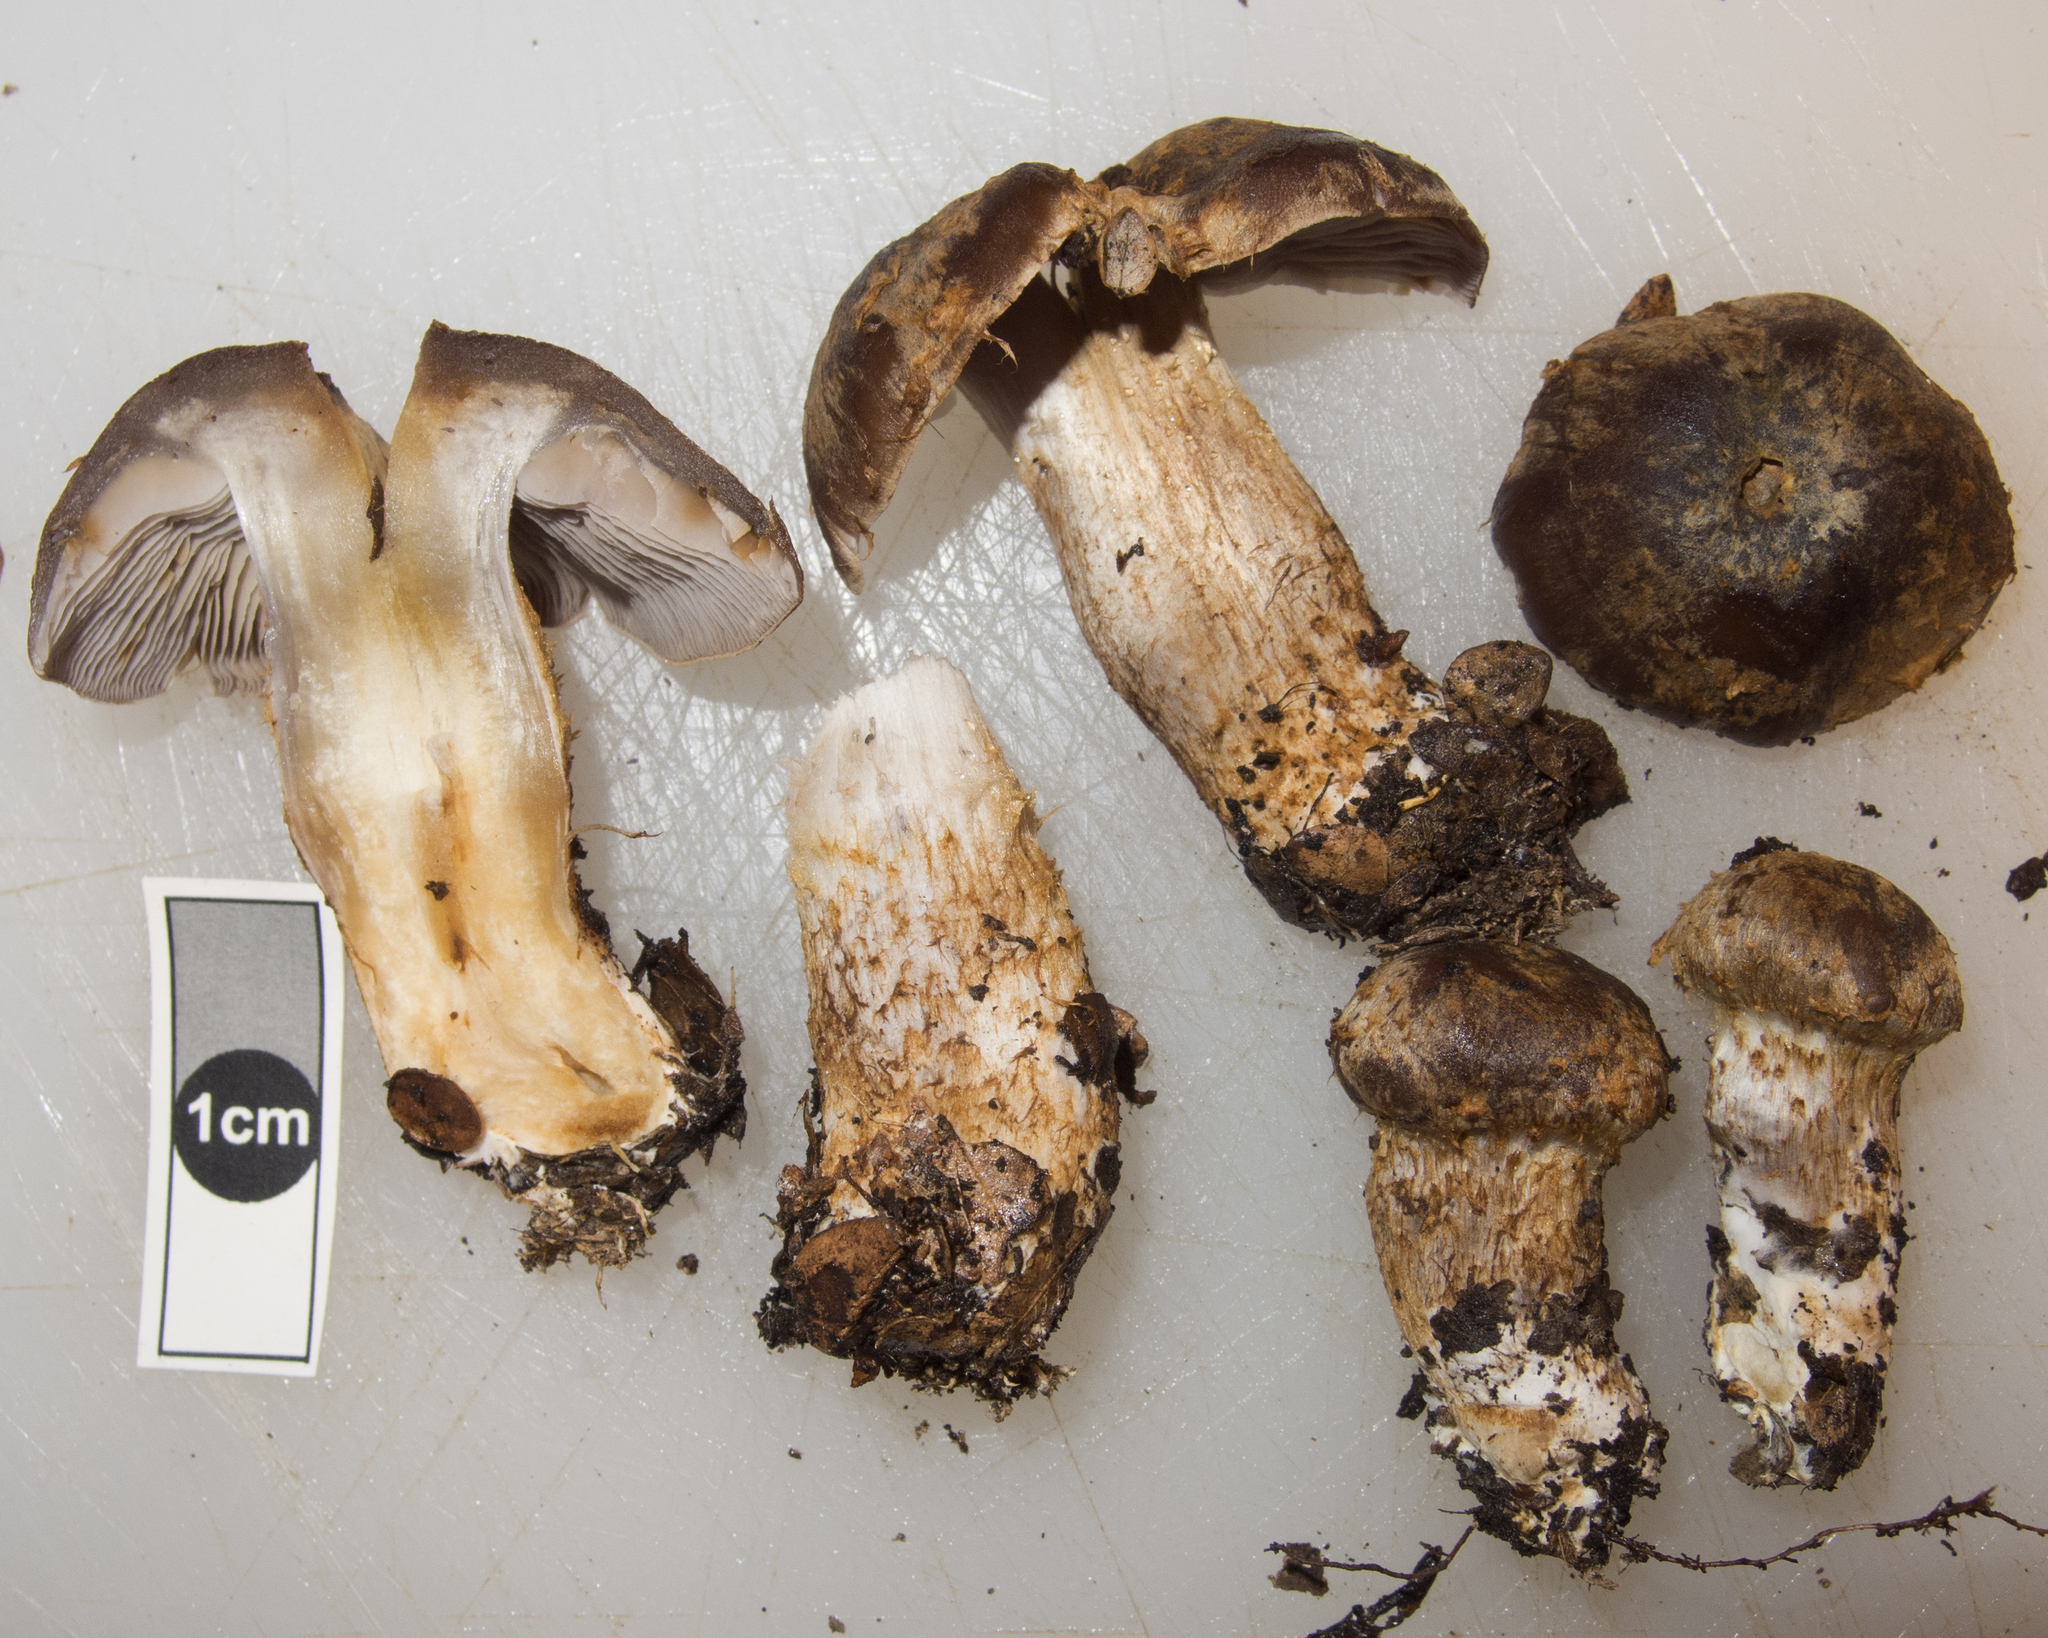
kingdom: Fungi
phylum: Basidiomycota
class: Agaricomycetes
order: Agaricales
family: Cortinariaceae
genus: Phlegmacium
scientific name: Phlegmacium cupreonatum
